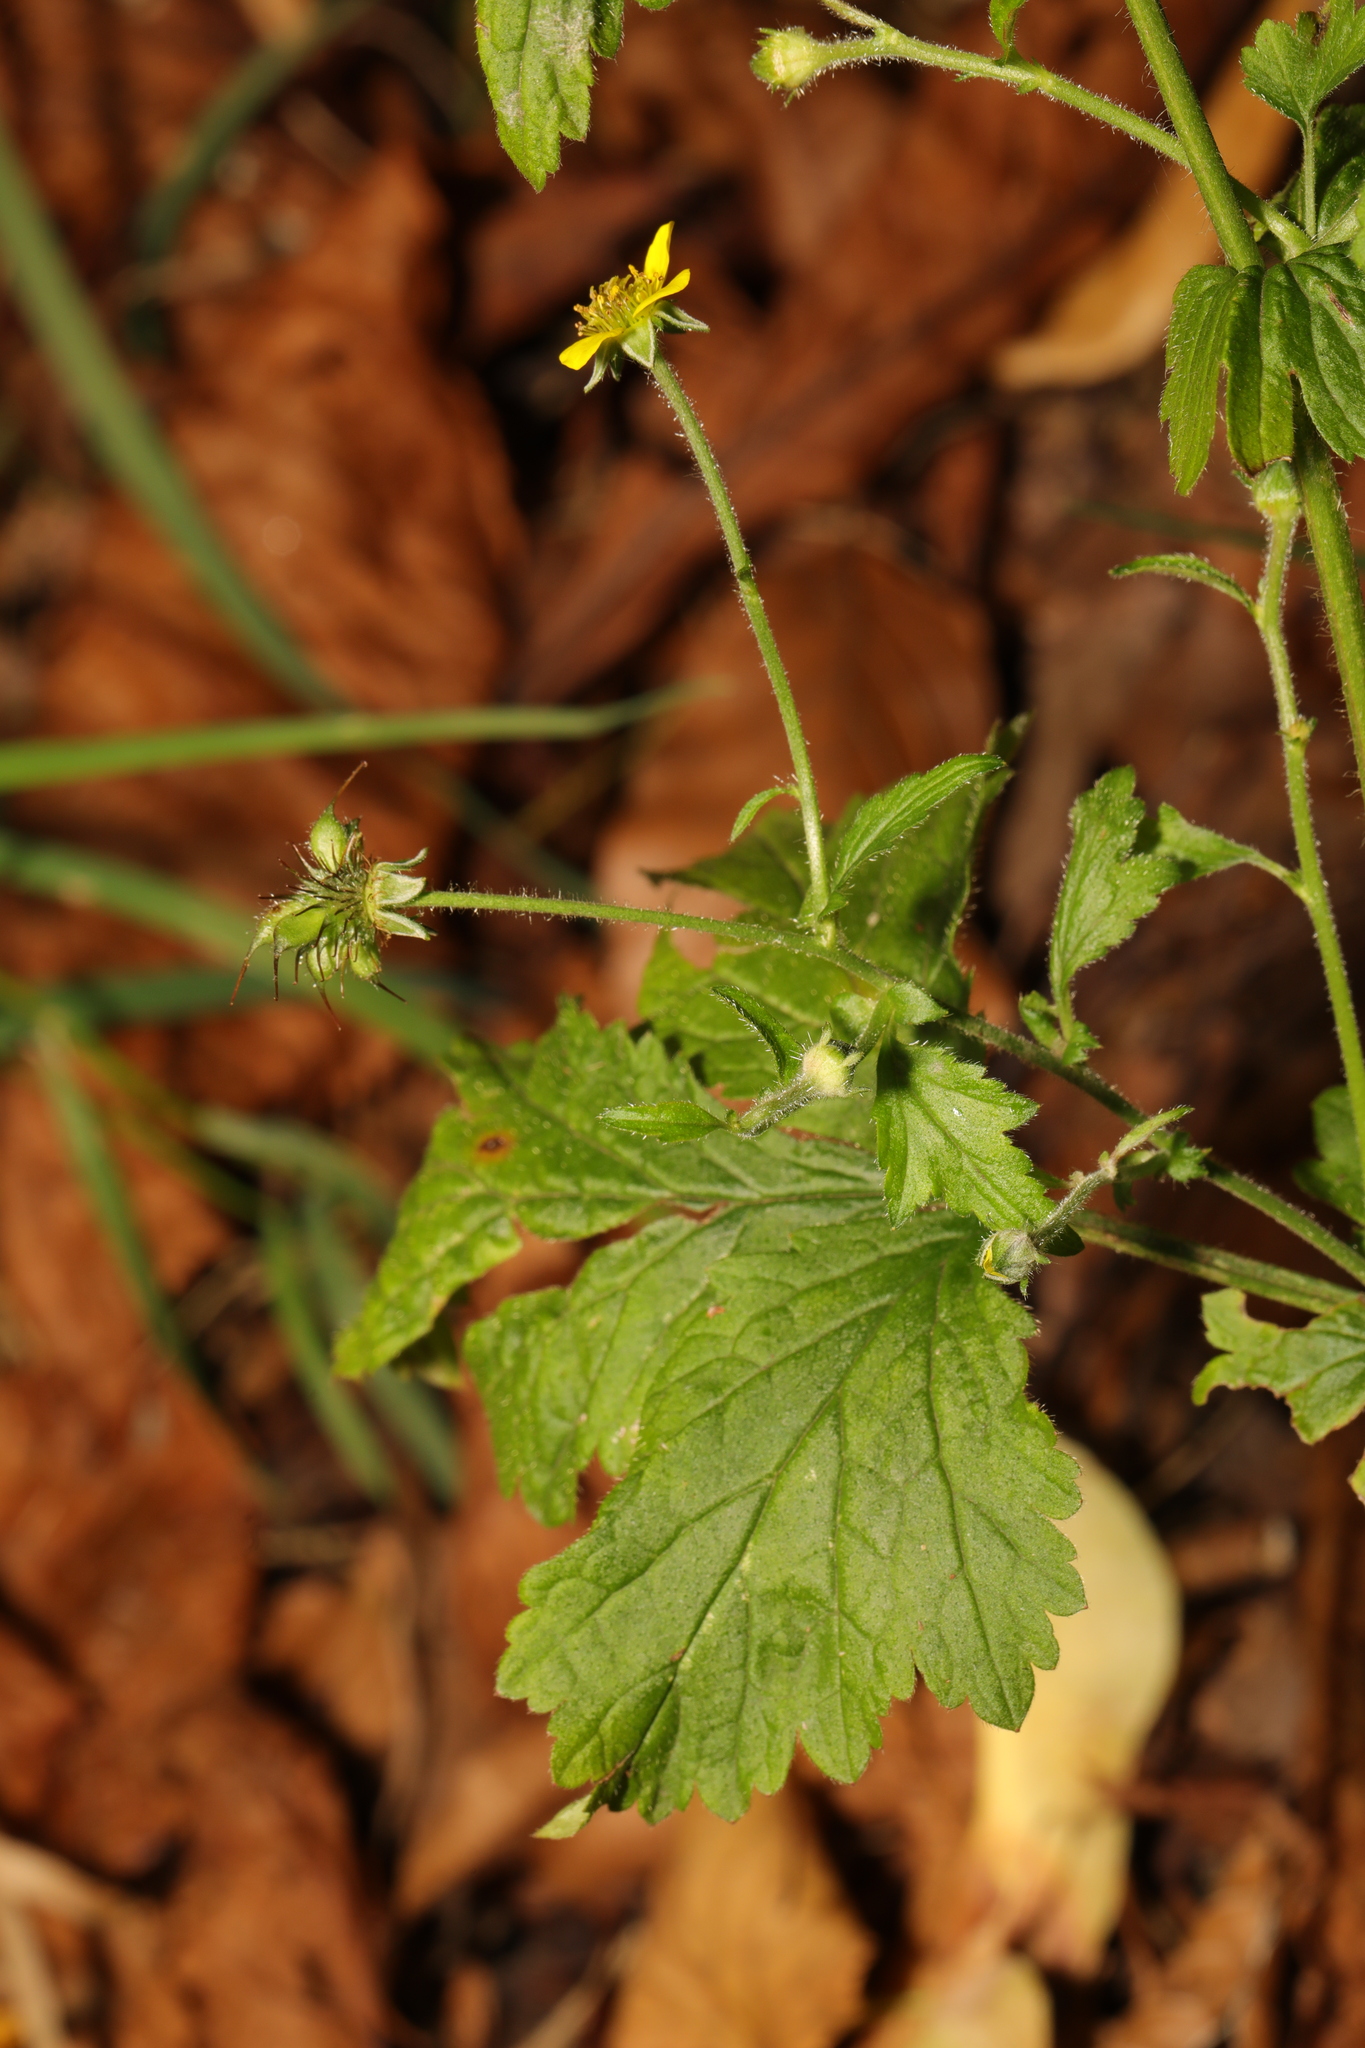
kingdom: Plantae
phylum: Tracheophyta
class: Magnoliopsida
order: Rosales
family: Rosaceae
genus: Geum
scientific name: Geum urbanum
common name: Wood avens
